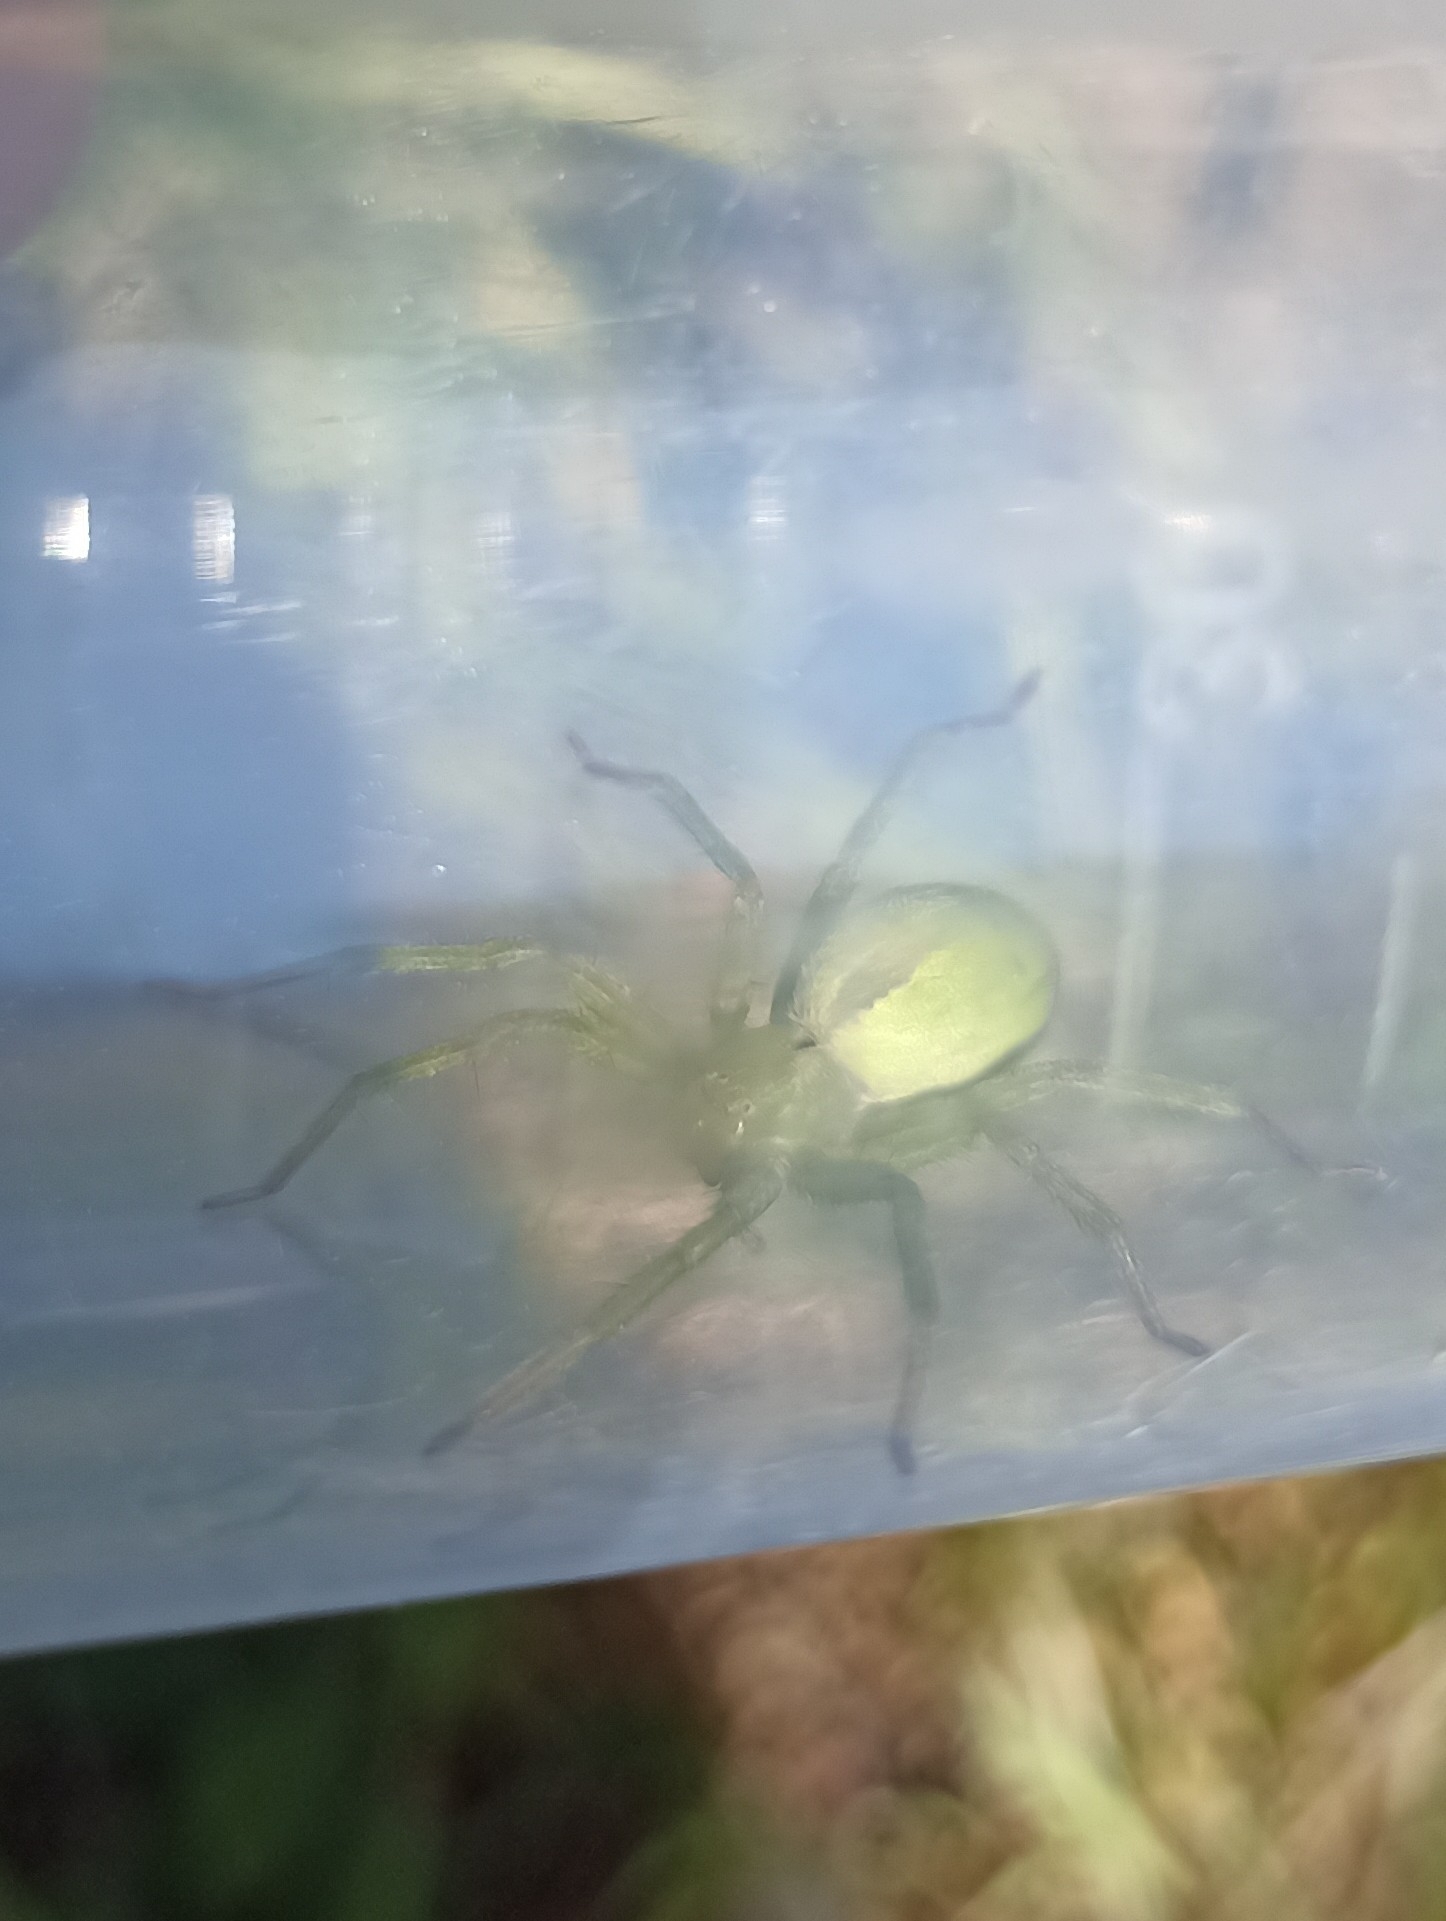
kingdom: Animalia
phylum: Arthropoda
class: Arachnida
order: Araneae
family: Sparassidae
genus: Micrommata
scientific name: Micrommata ligurina
